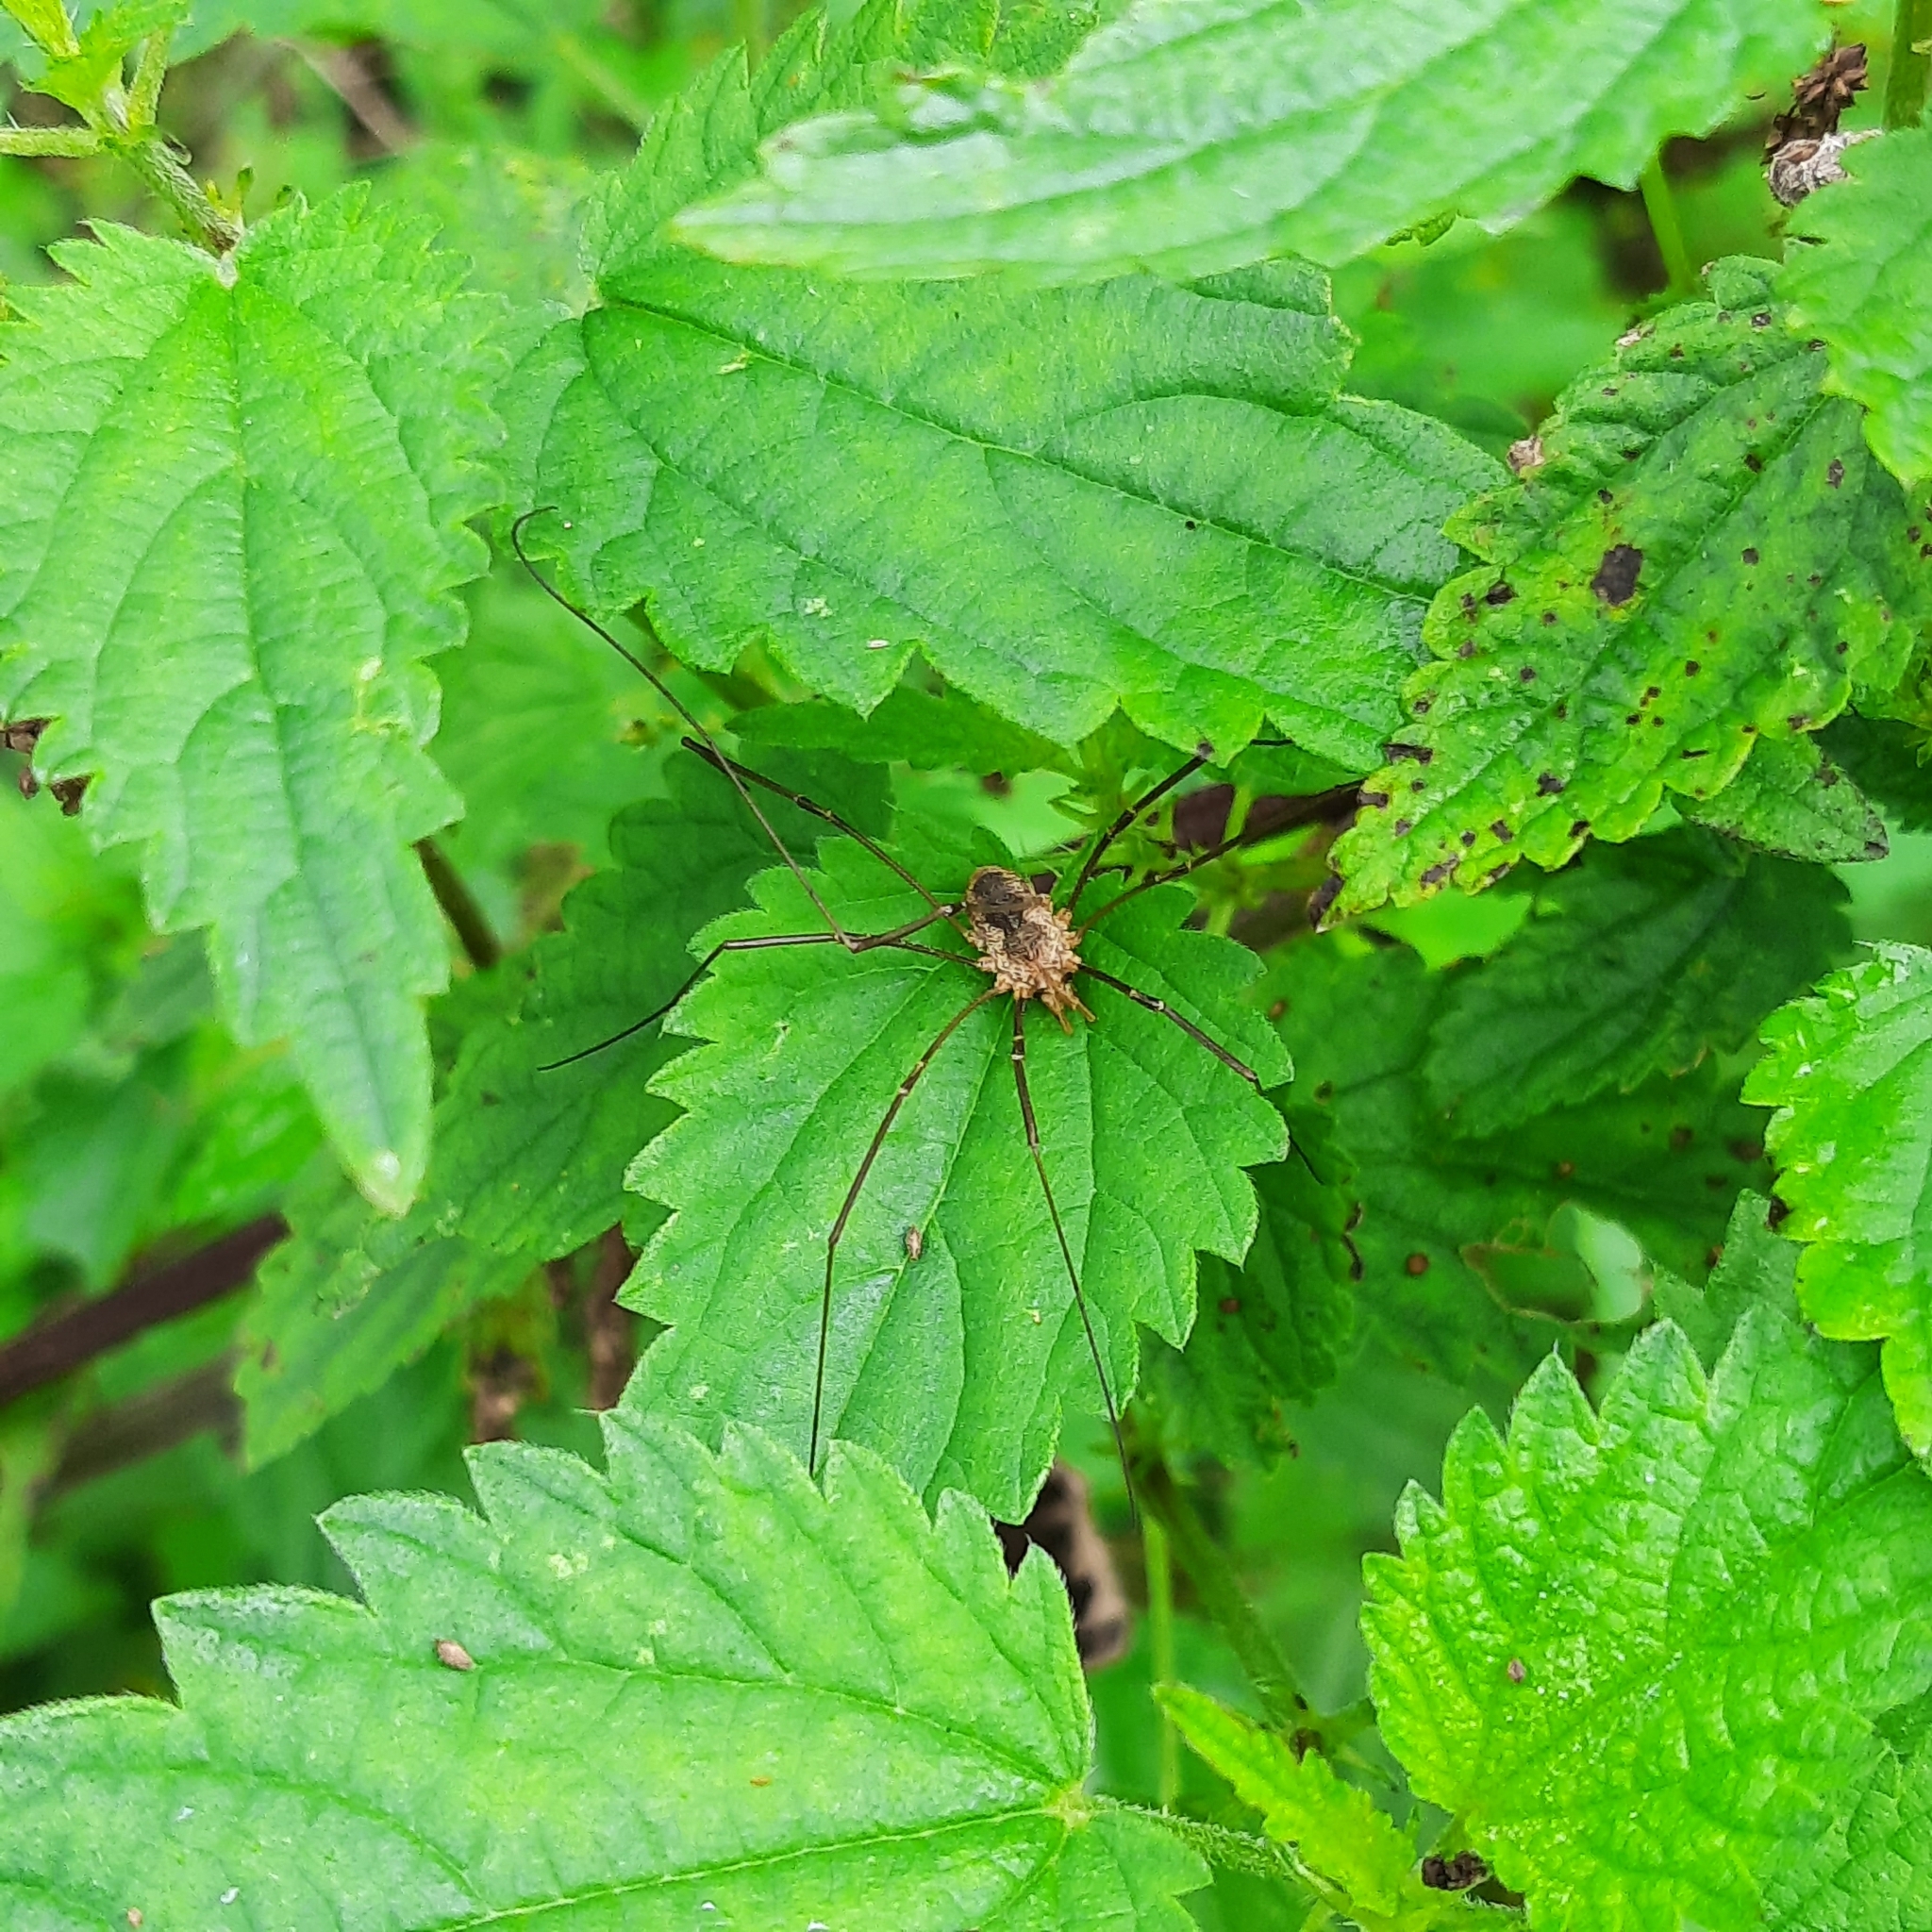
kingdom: Animalia
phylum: Arthropoda
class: Arachnida
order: Opiliones
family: Phalangiidae
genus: Phalangium
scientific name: Phalangium opilio
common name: Daddy longleg
